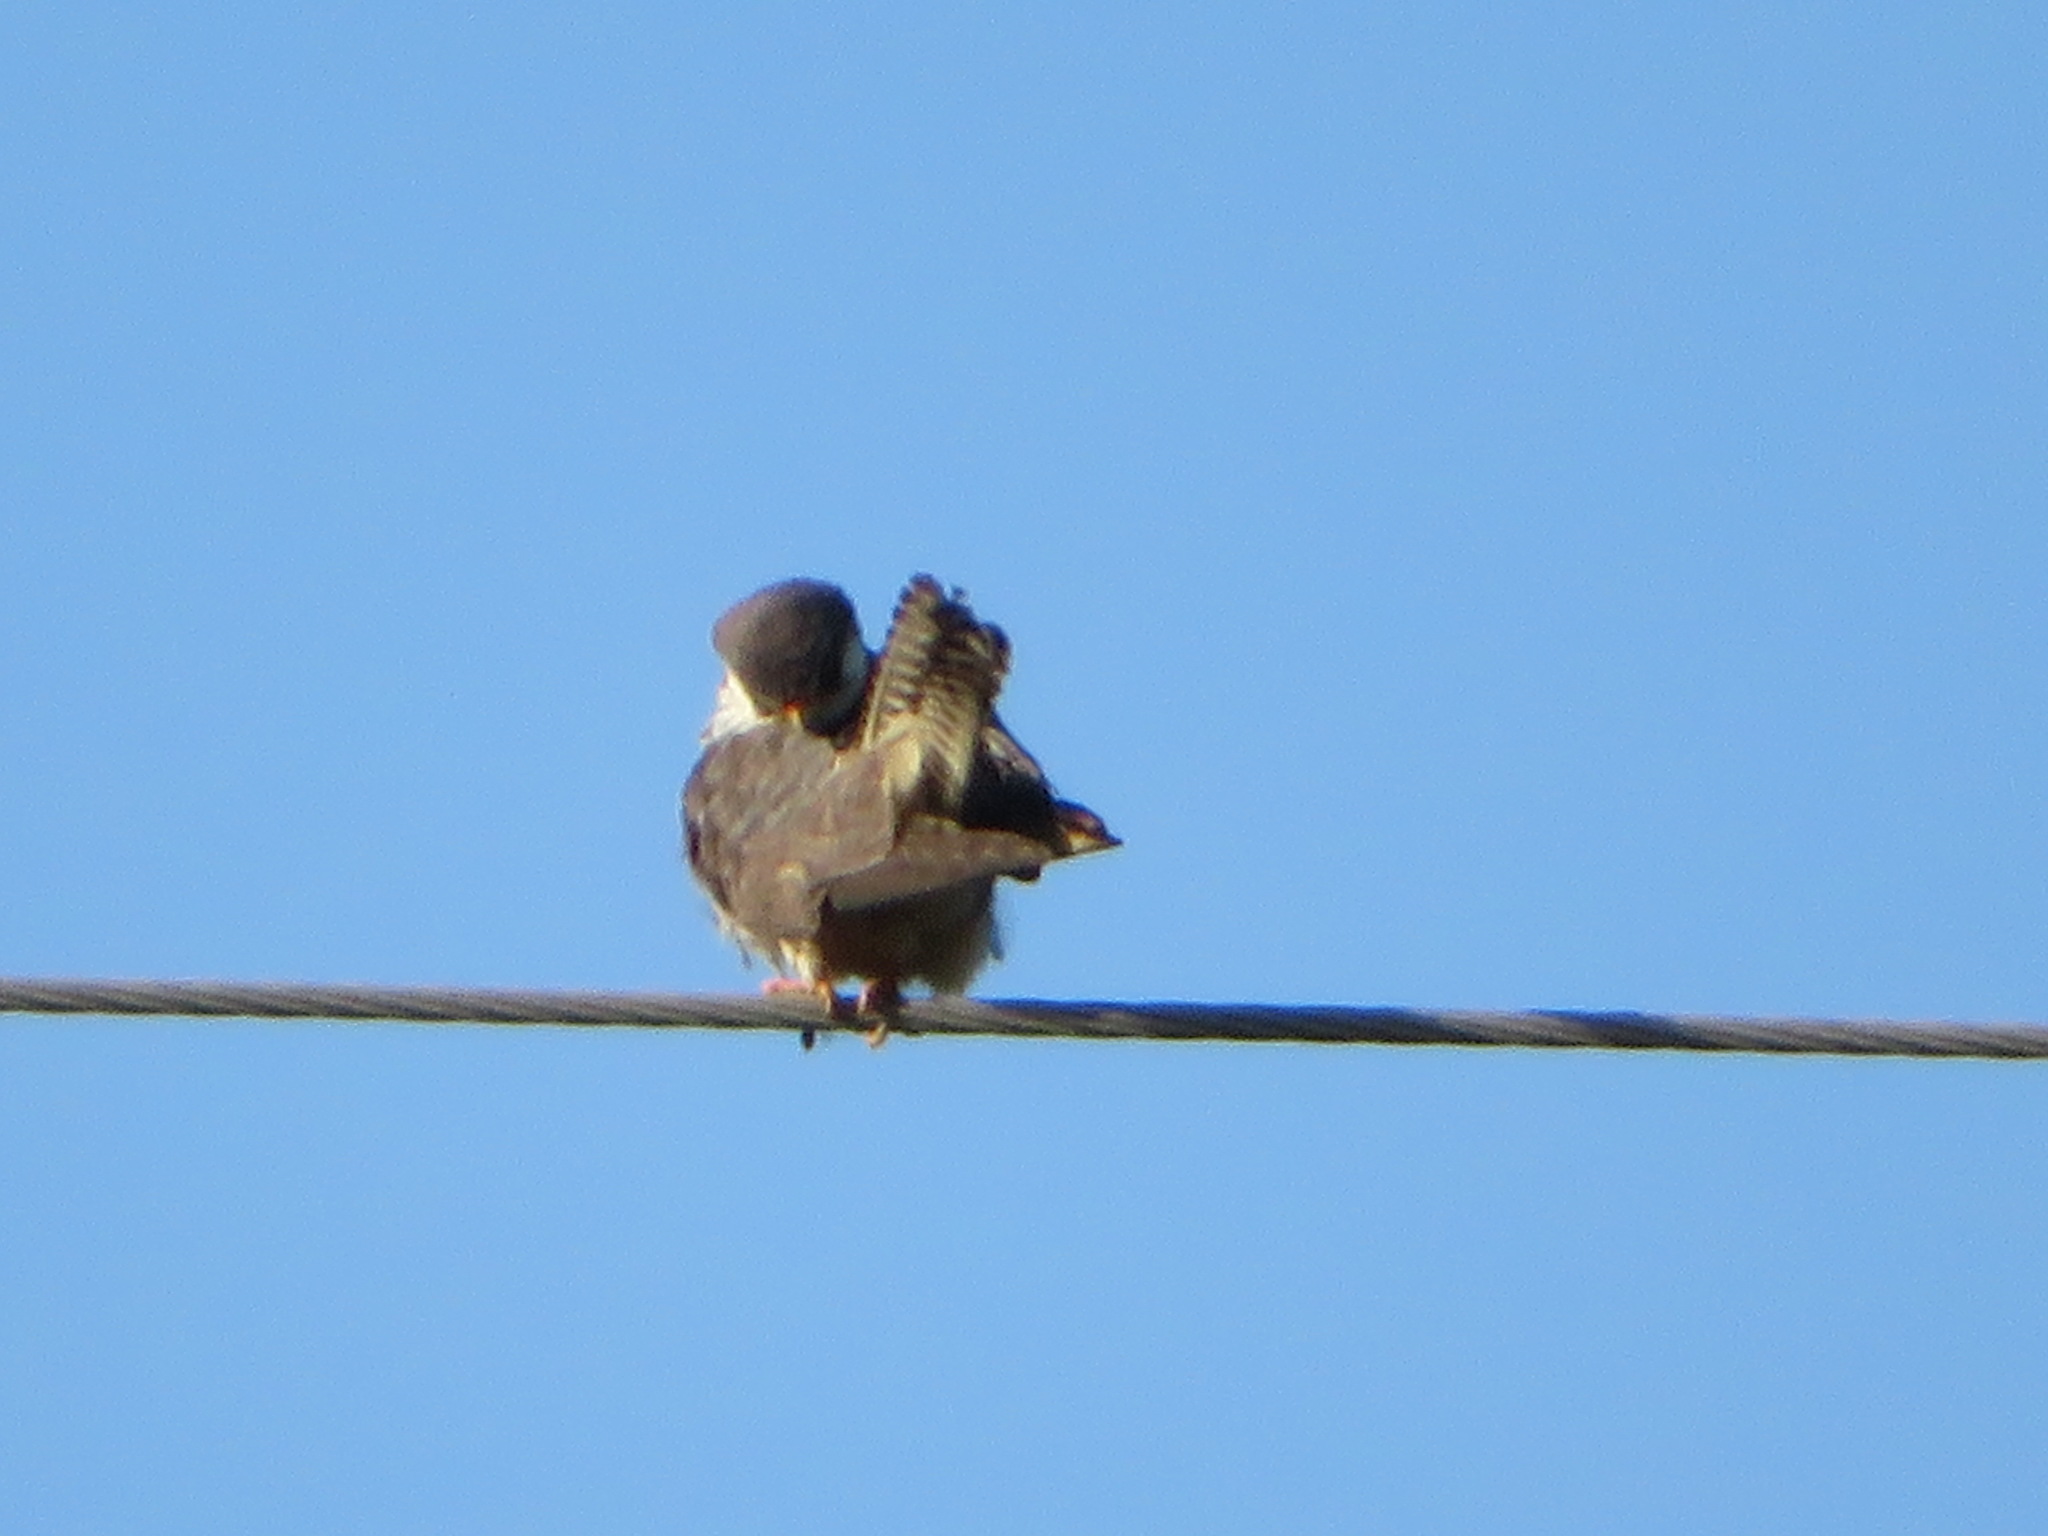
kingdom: Animalia
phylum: Chordata
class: Aves
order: Falconiformes
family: Falconidae
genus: Falco
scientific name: Falco amurensis
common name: Amur falcon
